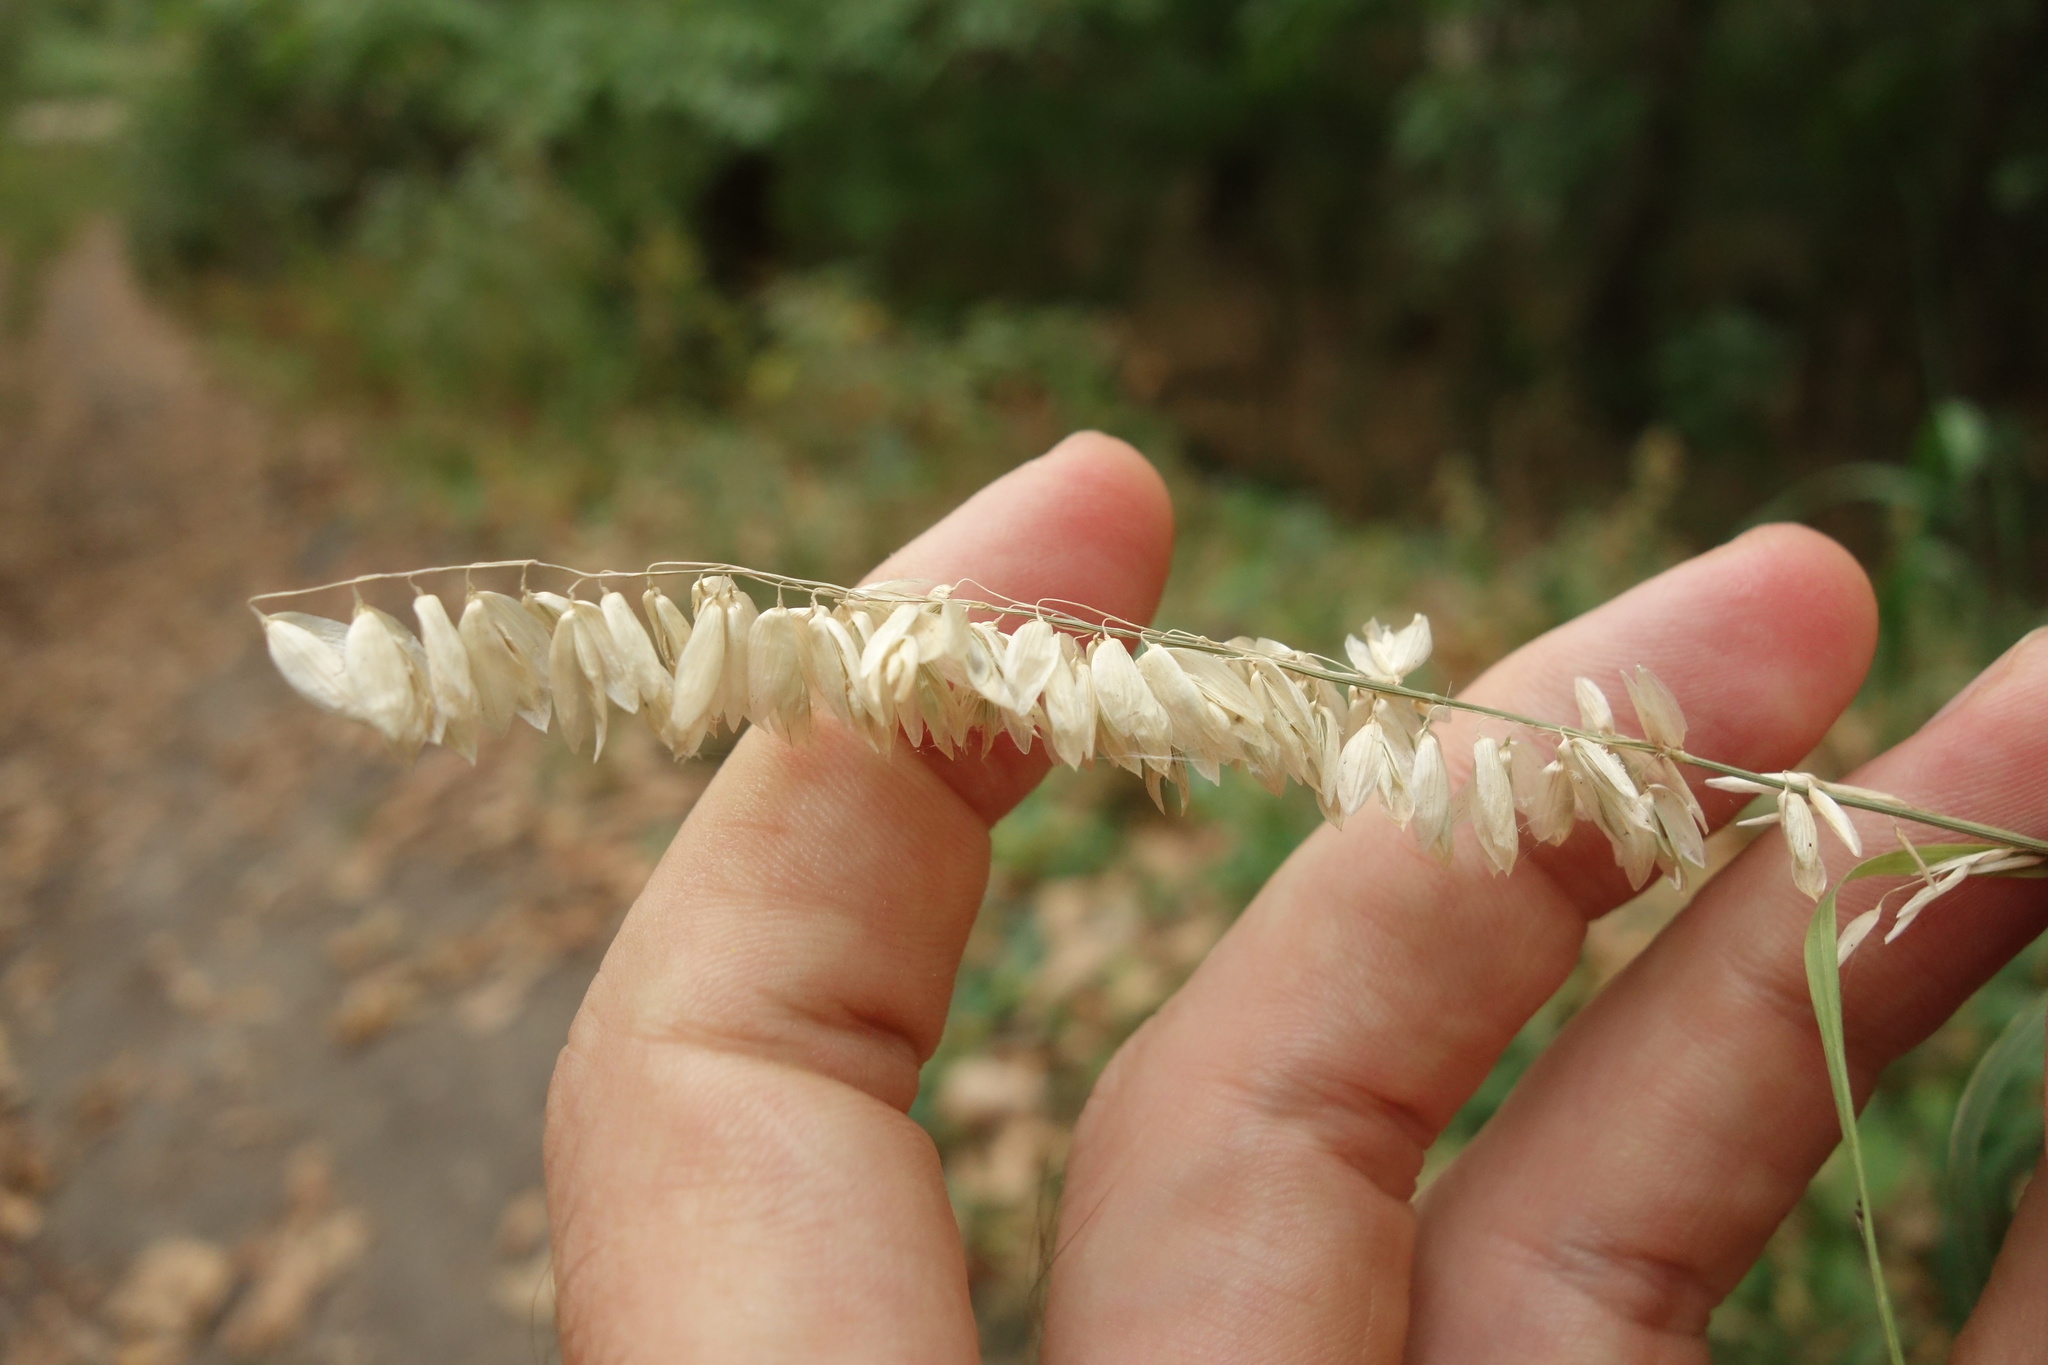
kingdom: Plantae
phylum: Tracheophyta
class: Liliopsida
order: Poales
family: Poaceae
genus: Melica
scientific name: Melica altissima
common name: Siberian melicgrass
